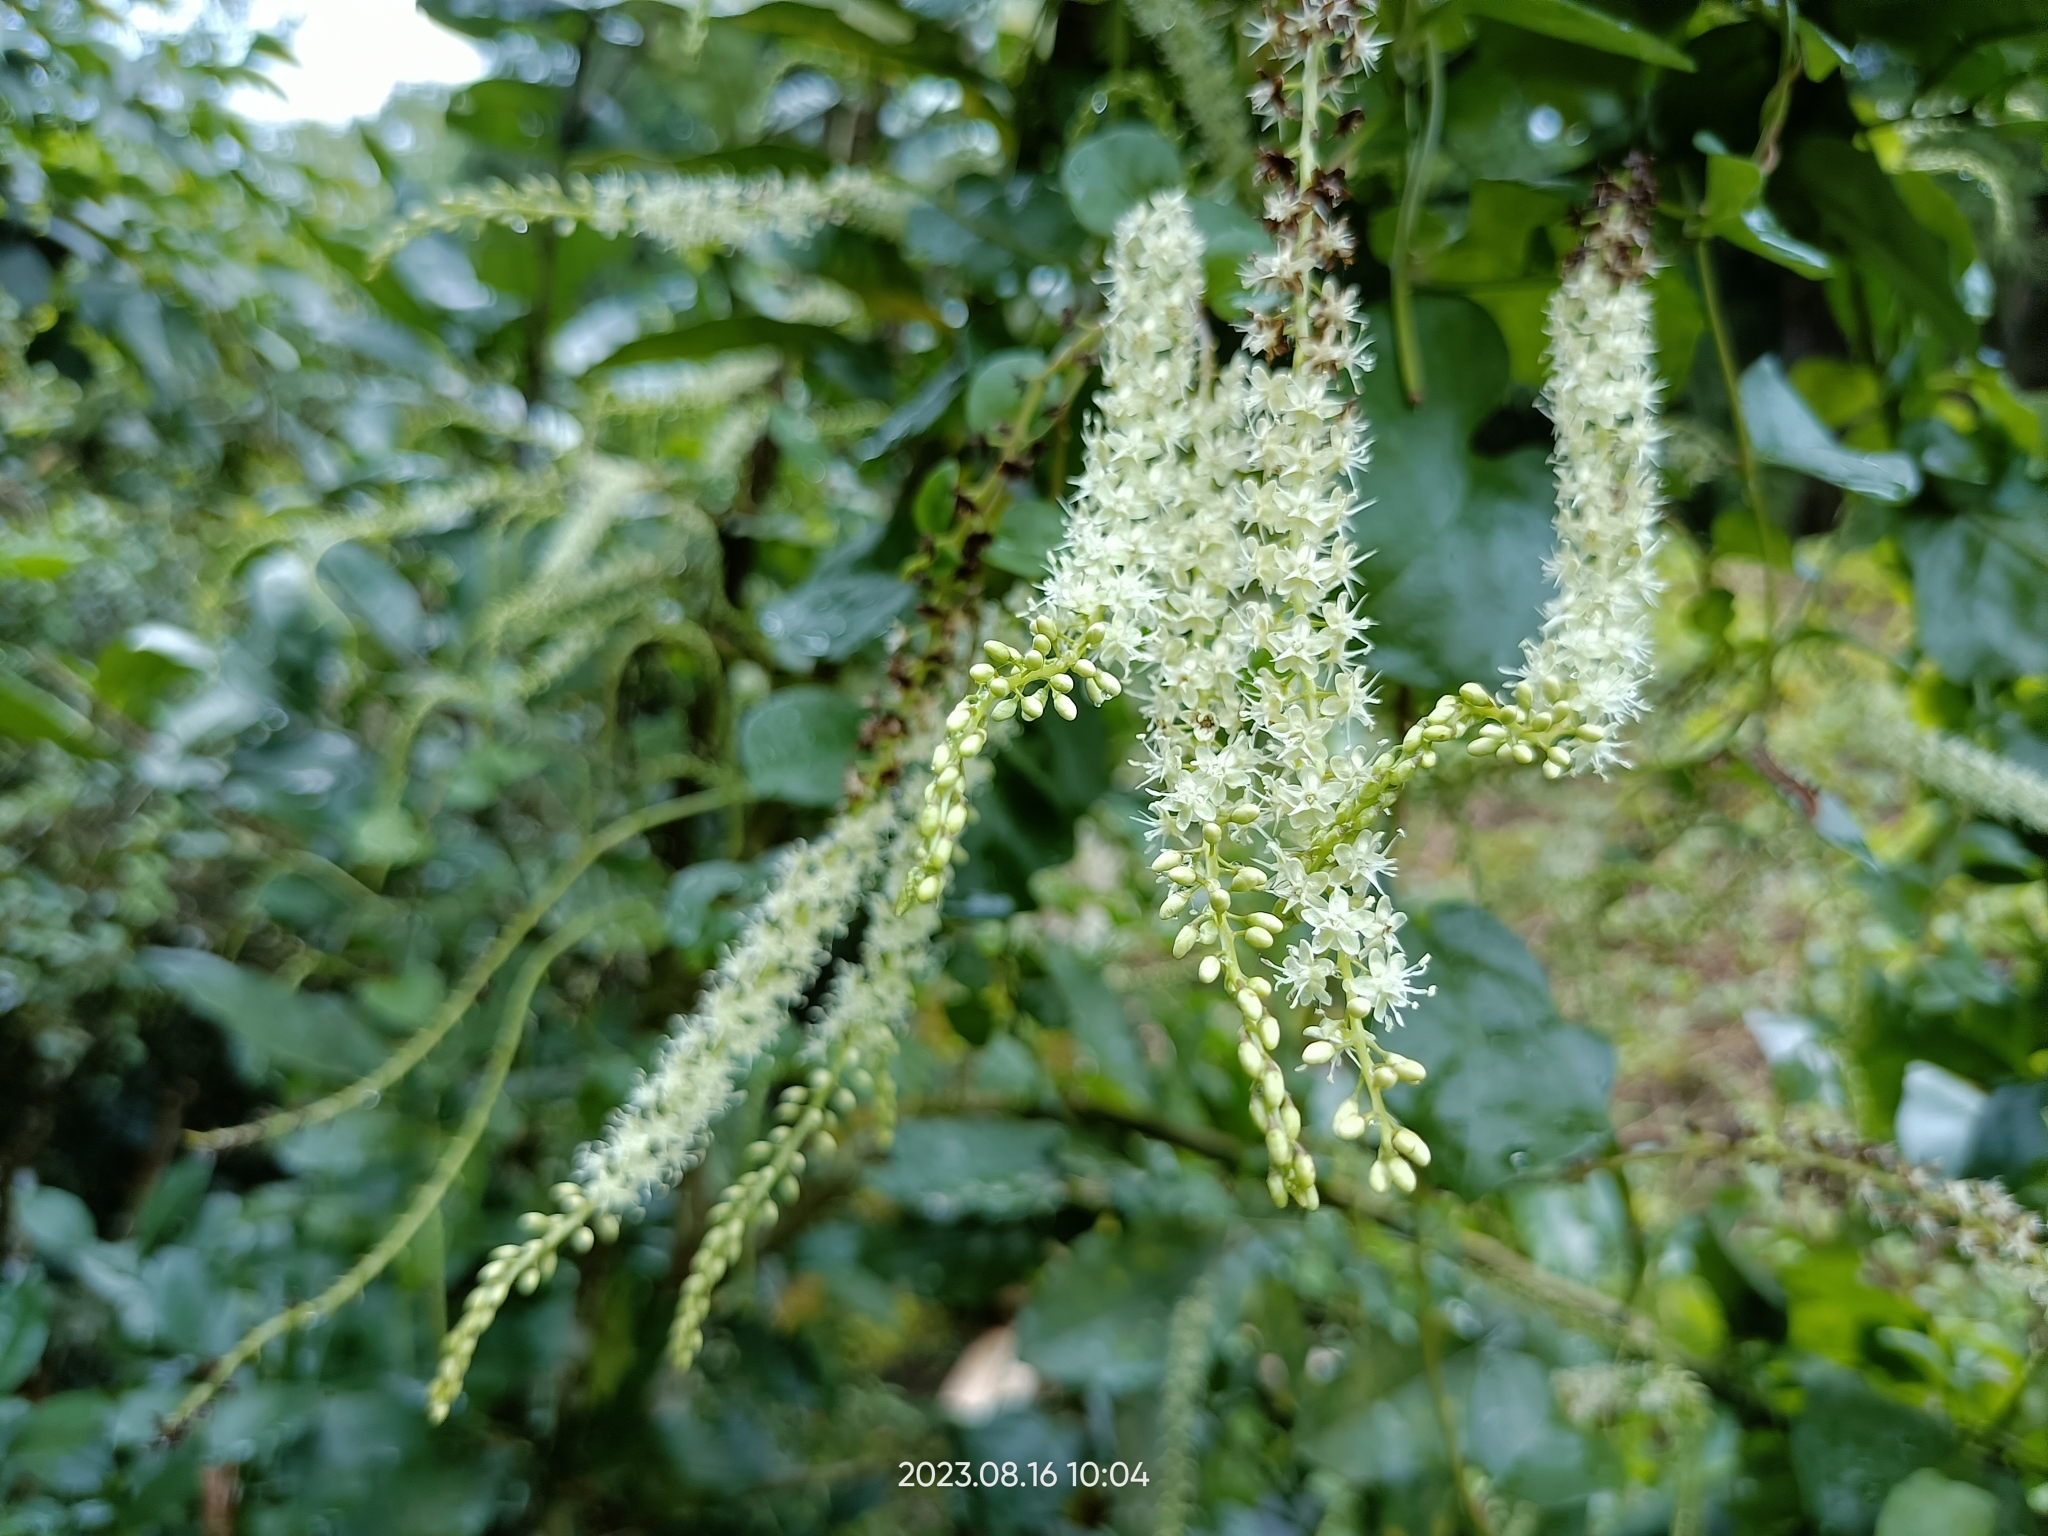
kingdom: Plantae
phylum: Tracheophyta
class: Magnoliopsida
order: Caryophyllales
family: Basellaceae
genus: Anredera
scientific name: Anredera cordifolia
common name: Heartleaf madeiravine
